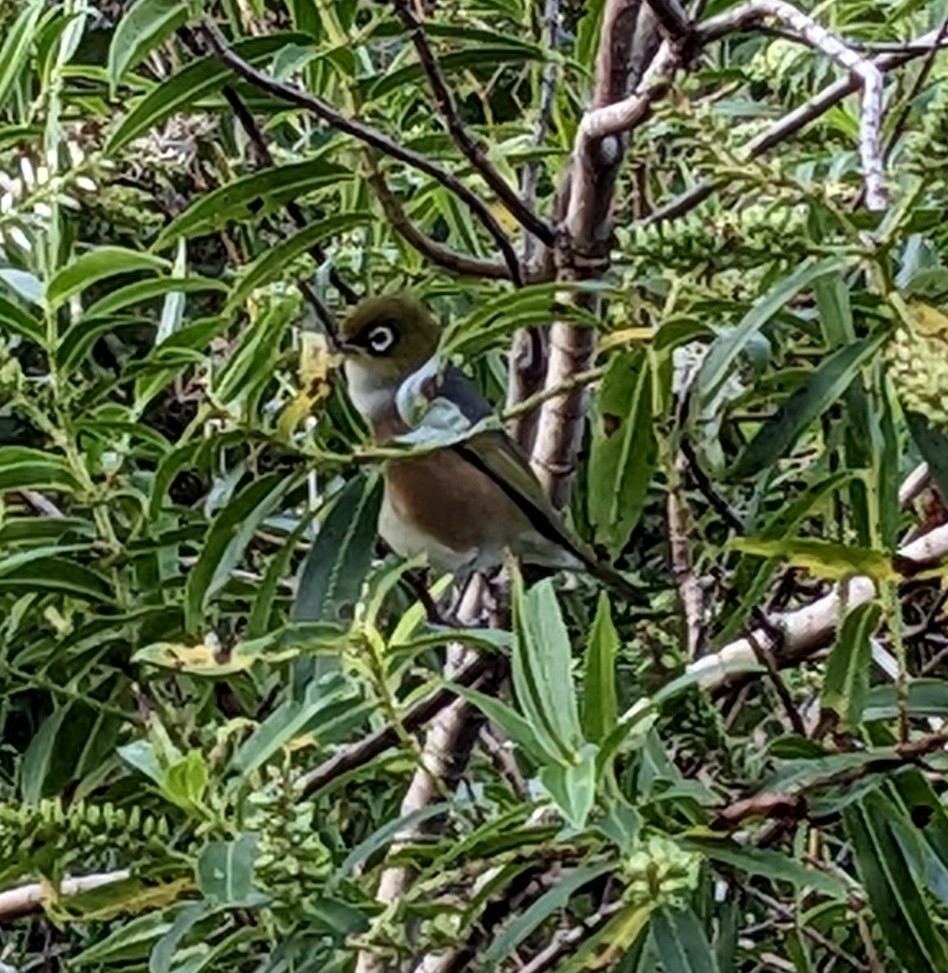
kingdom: Animalia
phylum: Chordata
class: Aves
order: Passeriformes
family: Zosteropidae
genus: Zosterops
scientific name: Zosterops lateralis
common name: Silvereye
